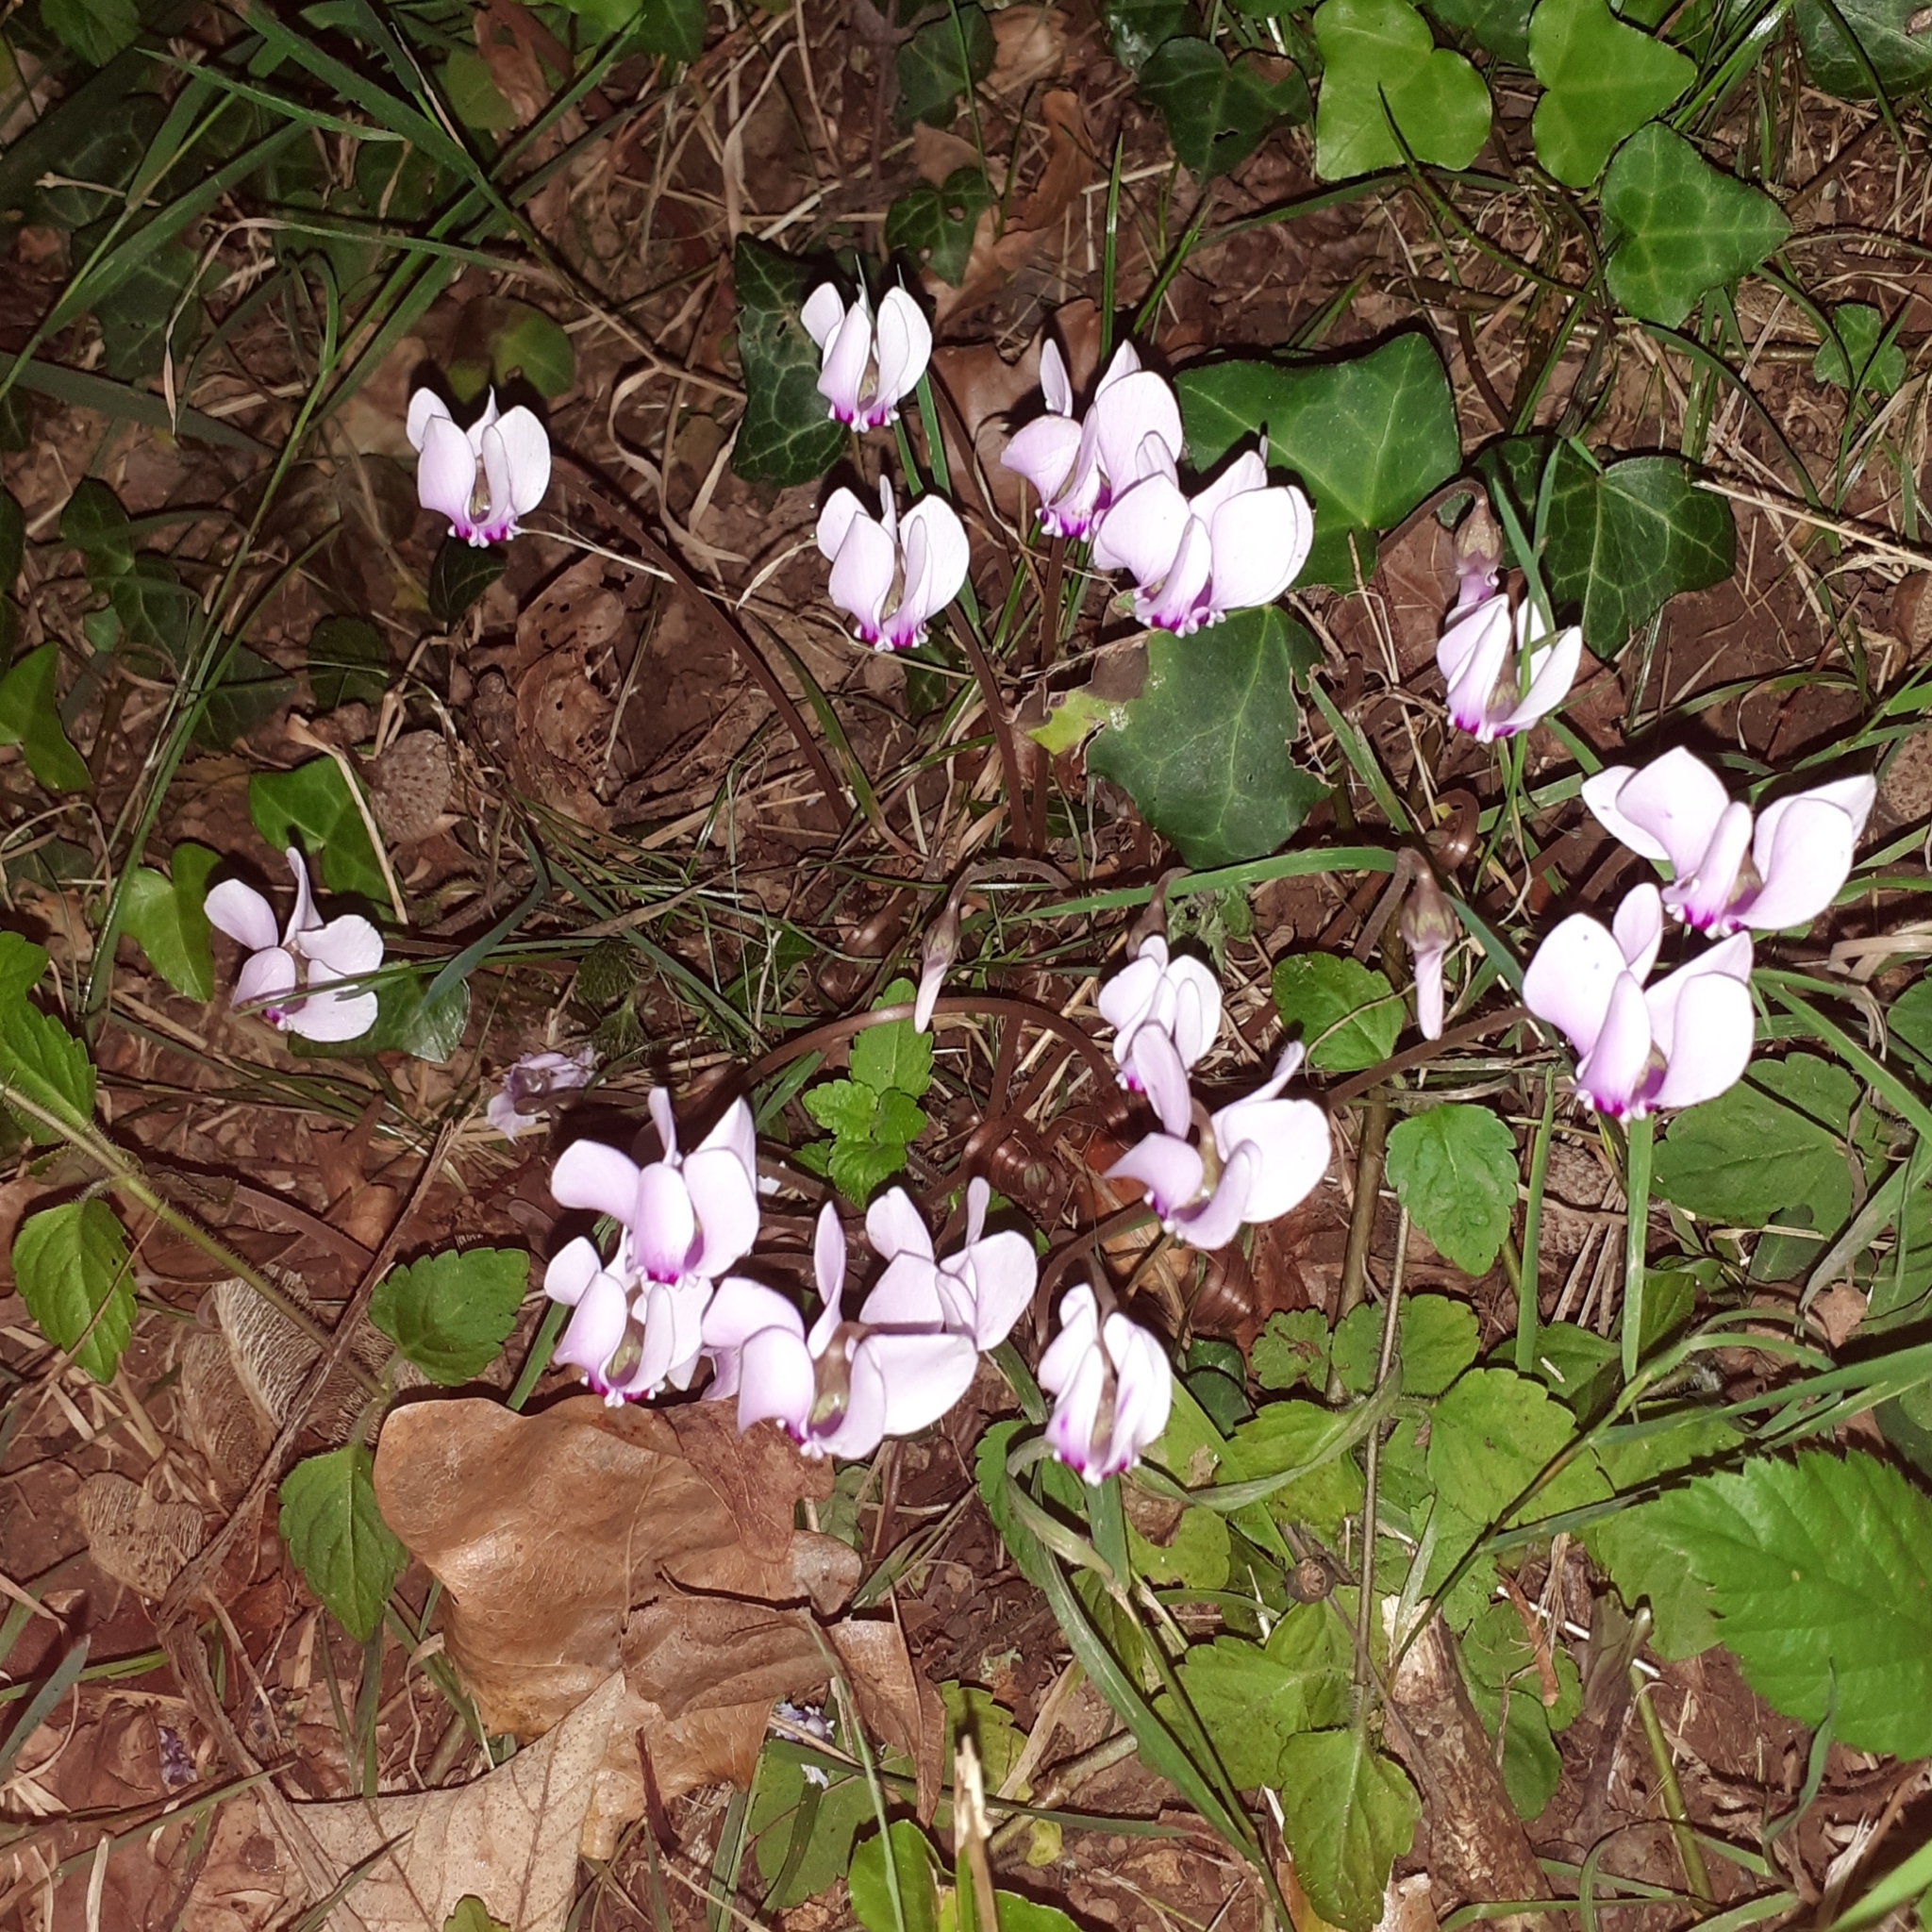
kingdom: Plantae
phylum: Tracheophyta
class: Magnoliopsida
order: Ericales
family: Primulaceae
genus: Cyclamen
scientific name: Cyclamen hederifolium
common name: Sowbread
